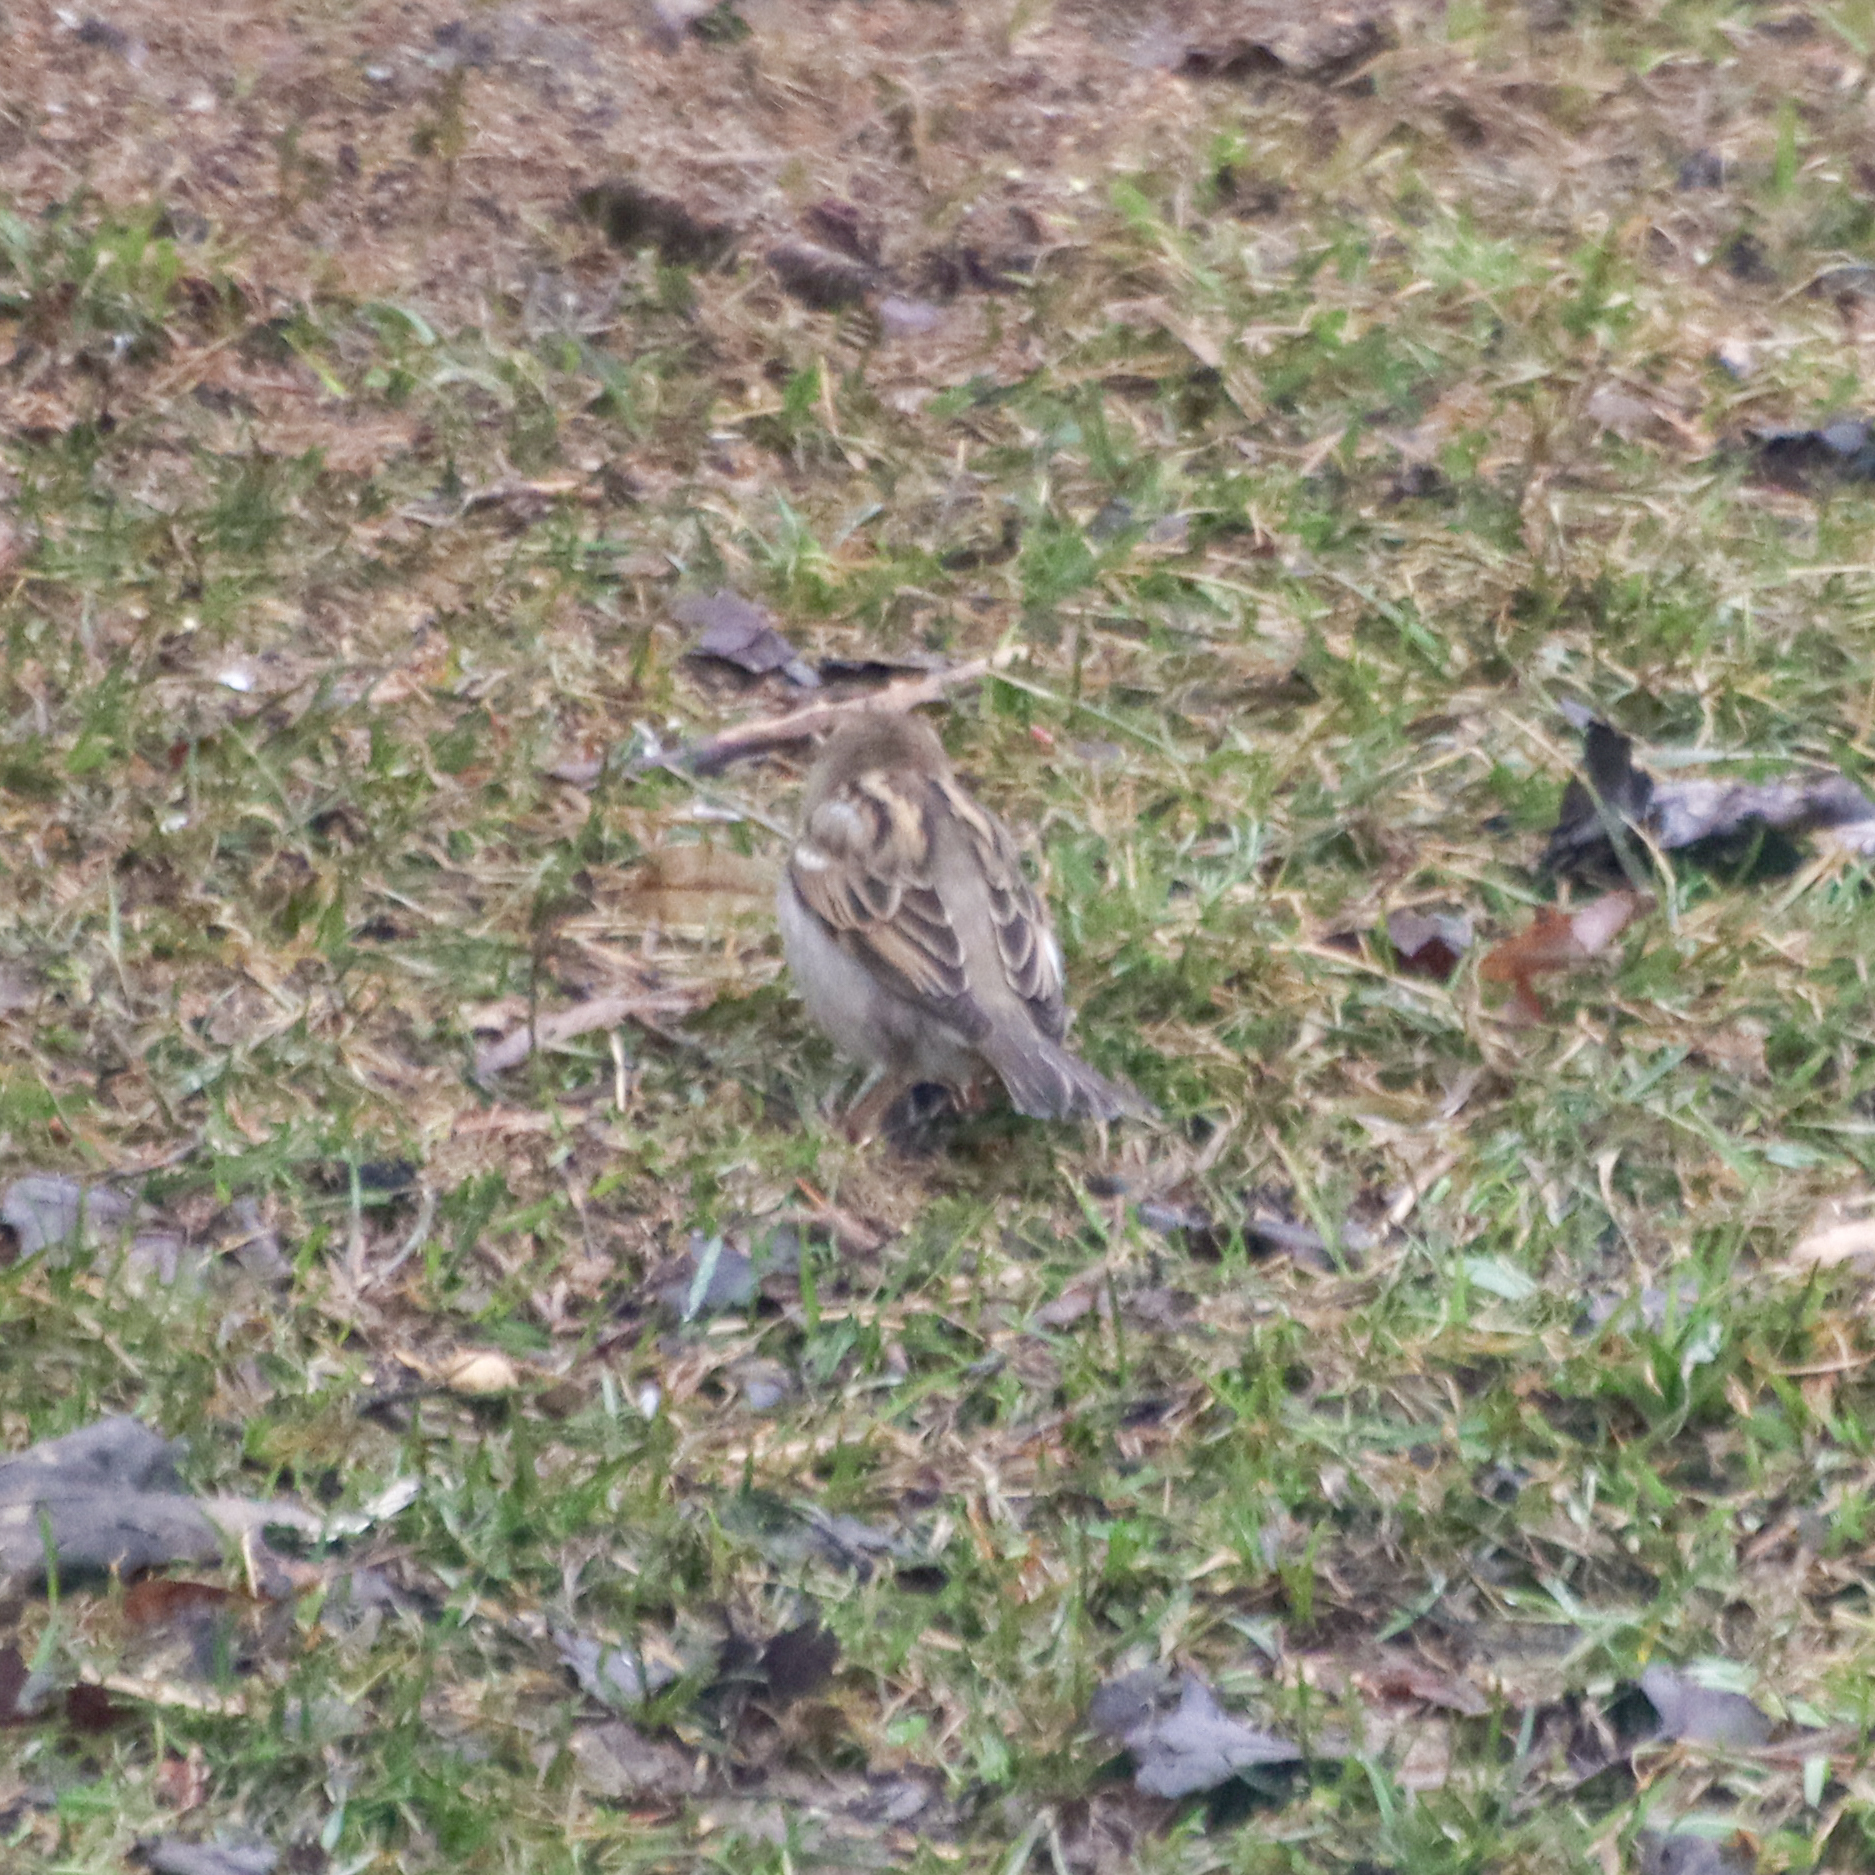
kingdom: Animalia
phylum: Chordata
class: Aves
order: Passeriformes
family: Passeridae
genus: Passer
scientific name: Passer domesticus
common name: House sparrow
